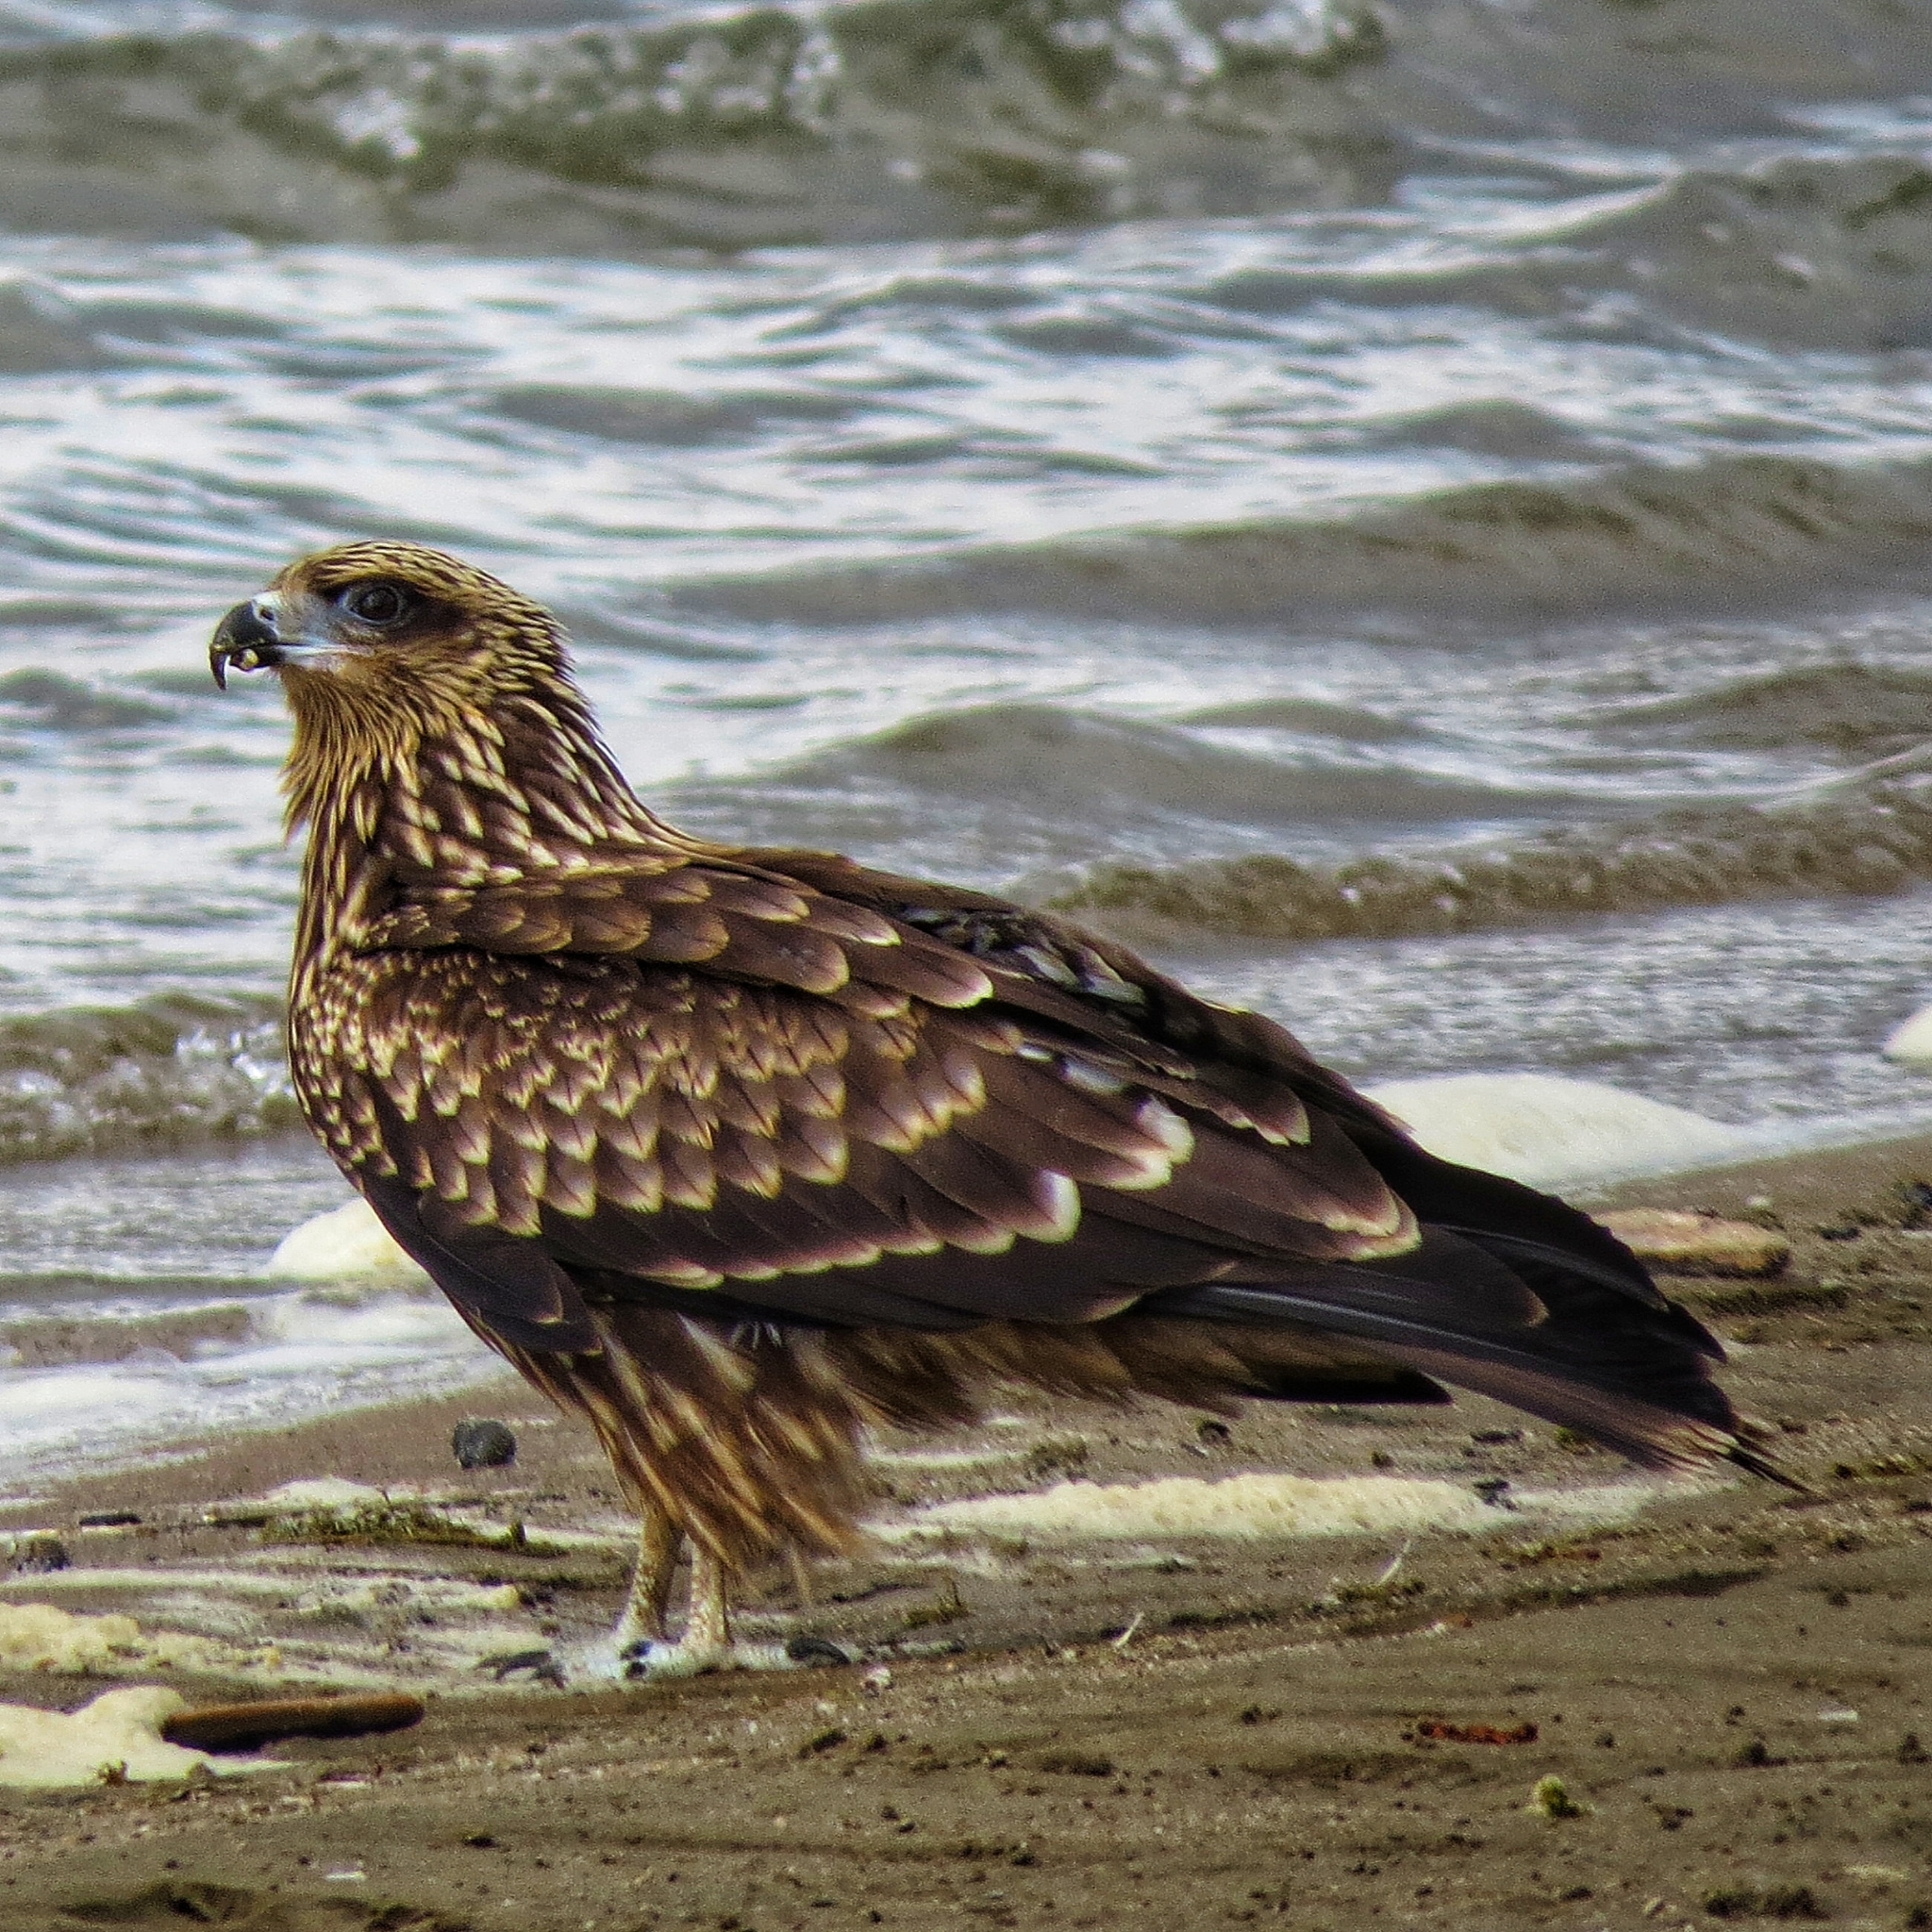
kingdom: Animalia
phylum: Chordata
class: Aves
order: Accipitriformes
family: Accipitridae
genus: Milvus
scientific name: Milvus migrans
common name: Black kite
